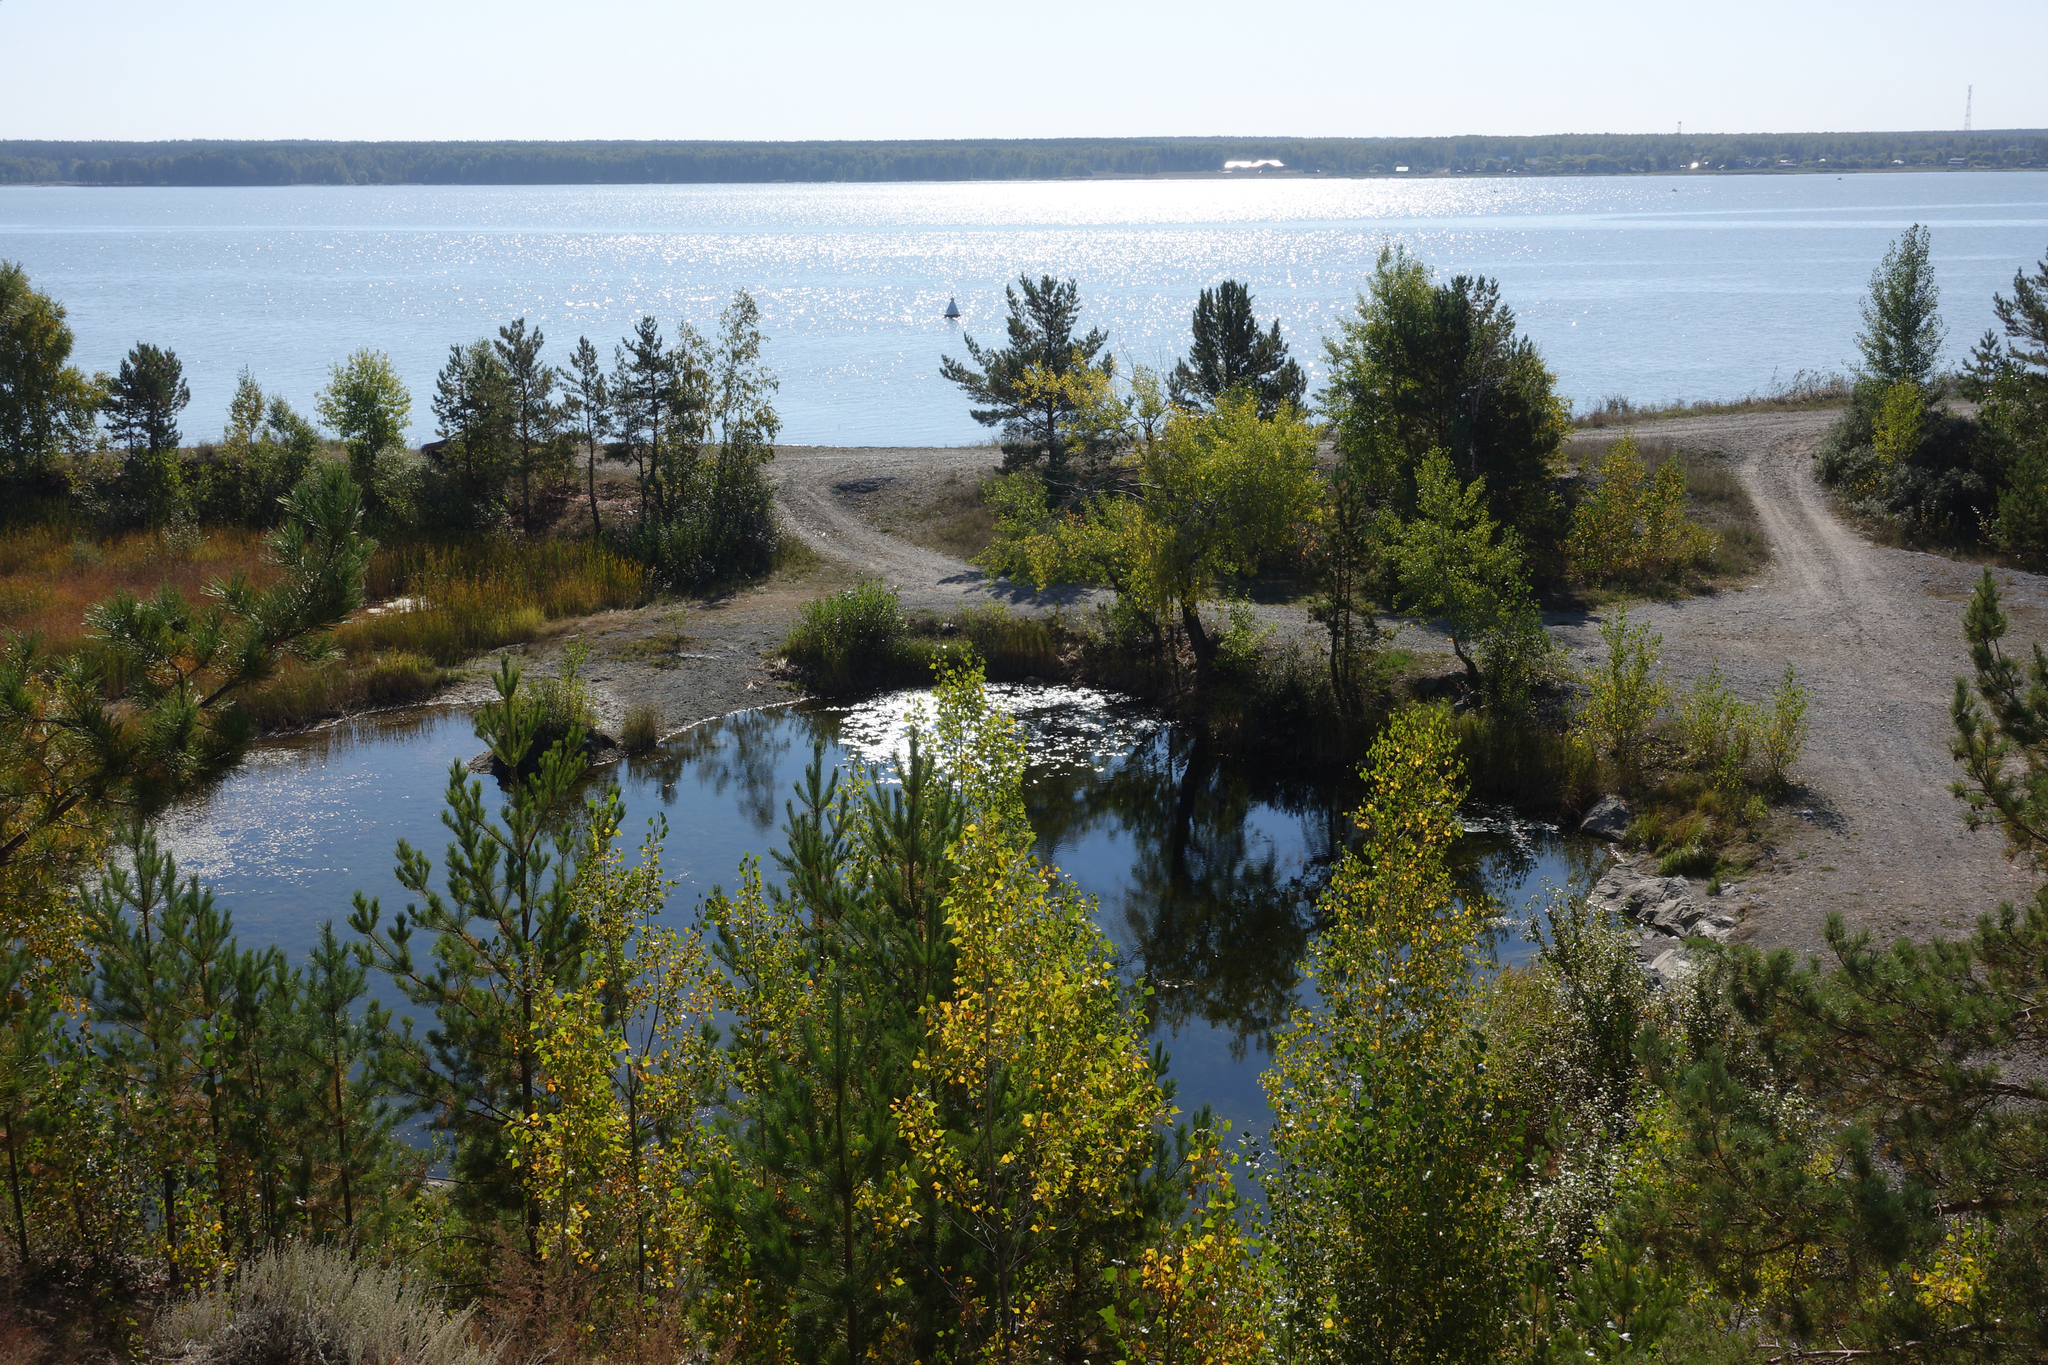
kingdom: Plantae
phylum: Tracheophyta
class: Pinopsida
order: Pinales
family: Pinaceae
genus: Pinus
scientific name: Pinus sylvestris
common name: Scots pine
